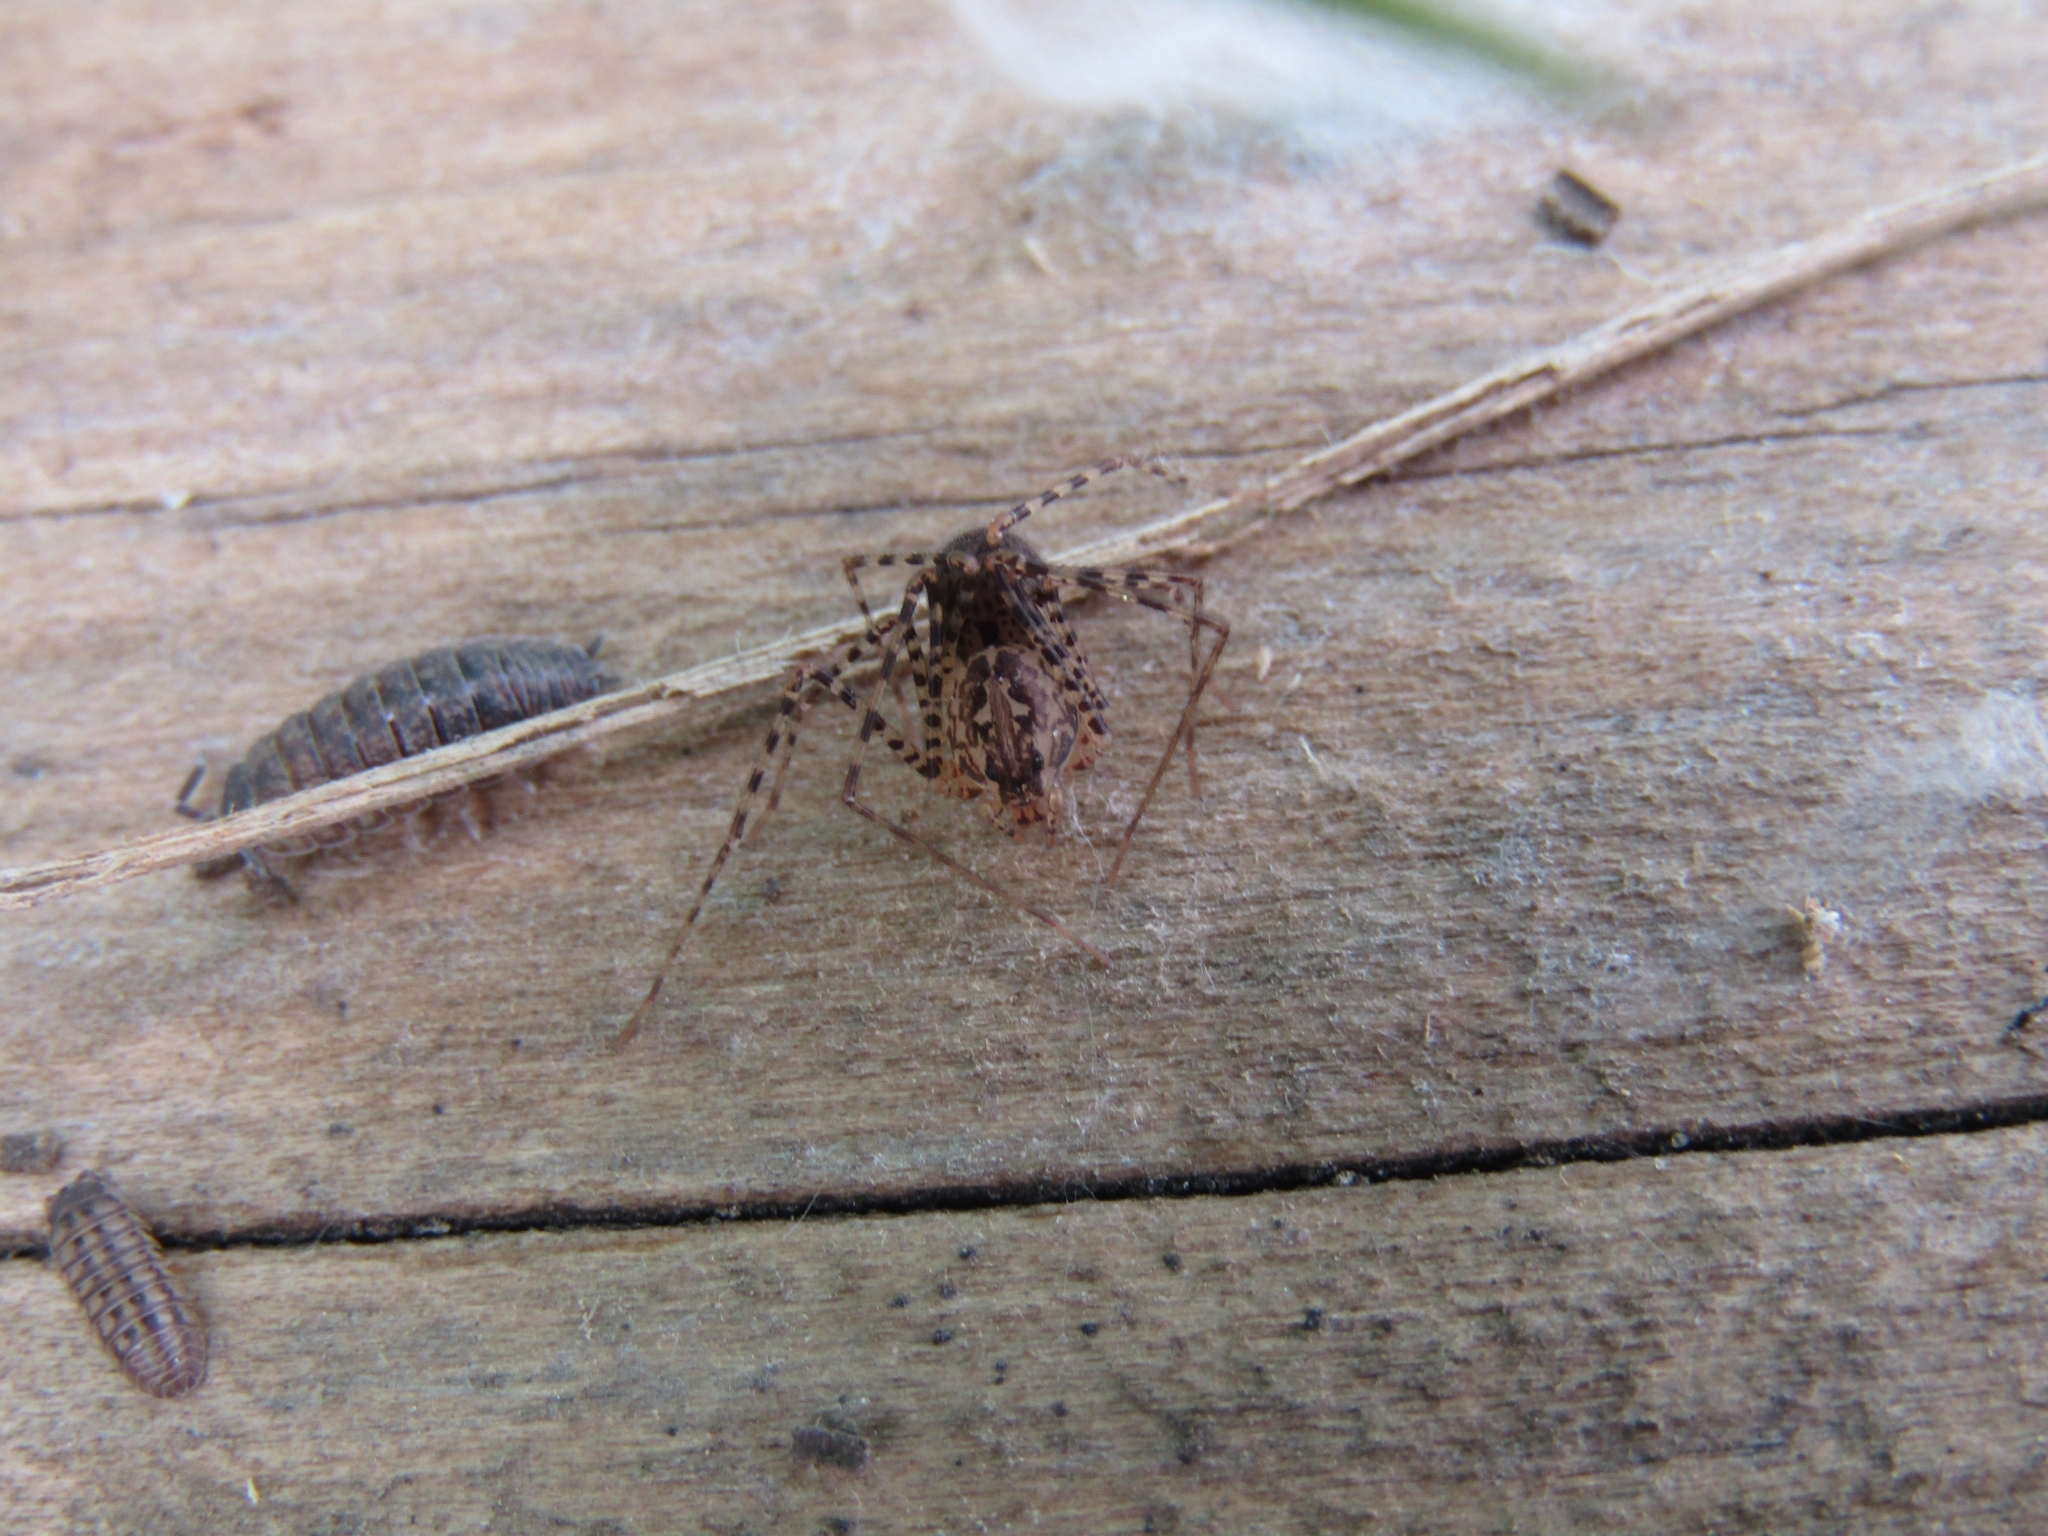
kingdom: Animalia
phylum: Arthropoda
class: Arachnida
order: Araneae
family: Scytodidae
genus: Scytodes
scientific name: Scytodes globula
